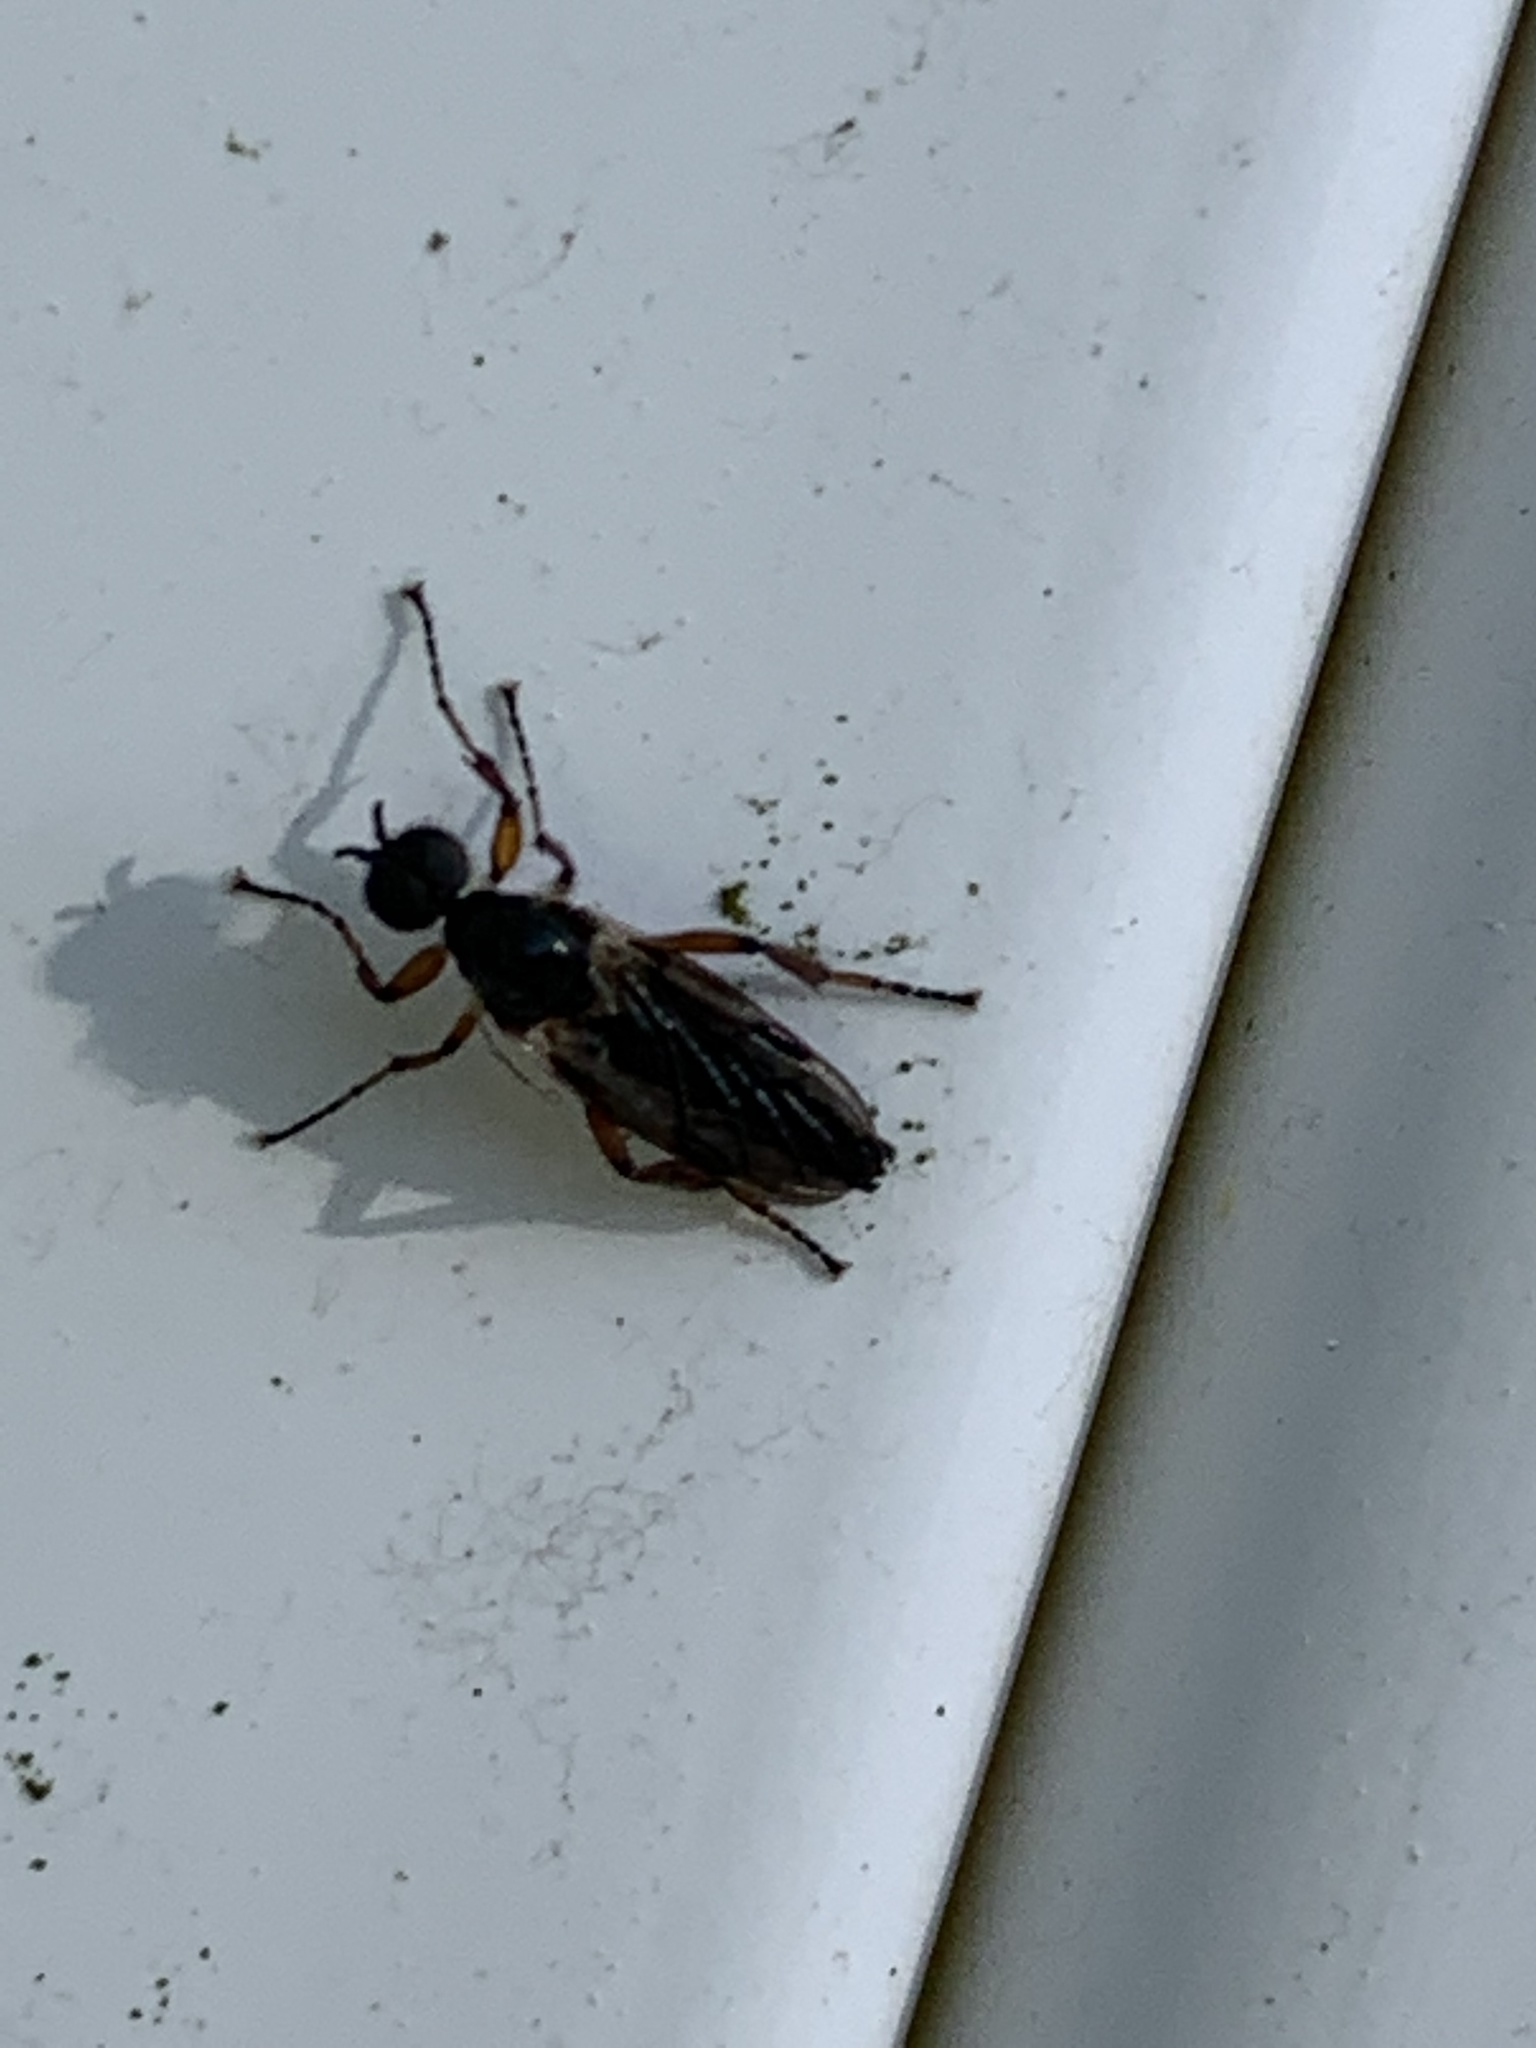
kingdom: Animalia
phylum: Arthropoda
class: Insecta
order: Diptera
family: Bibionidae
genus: Bibio
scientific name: Bibio
